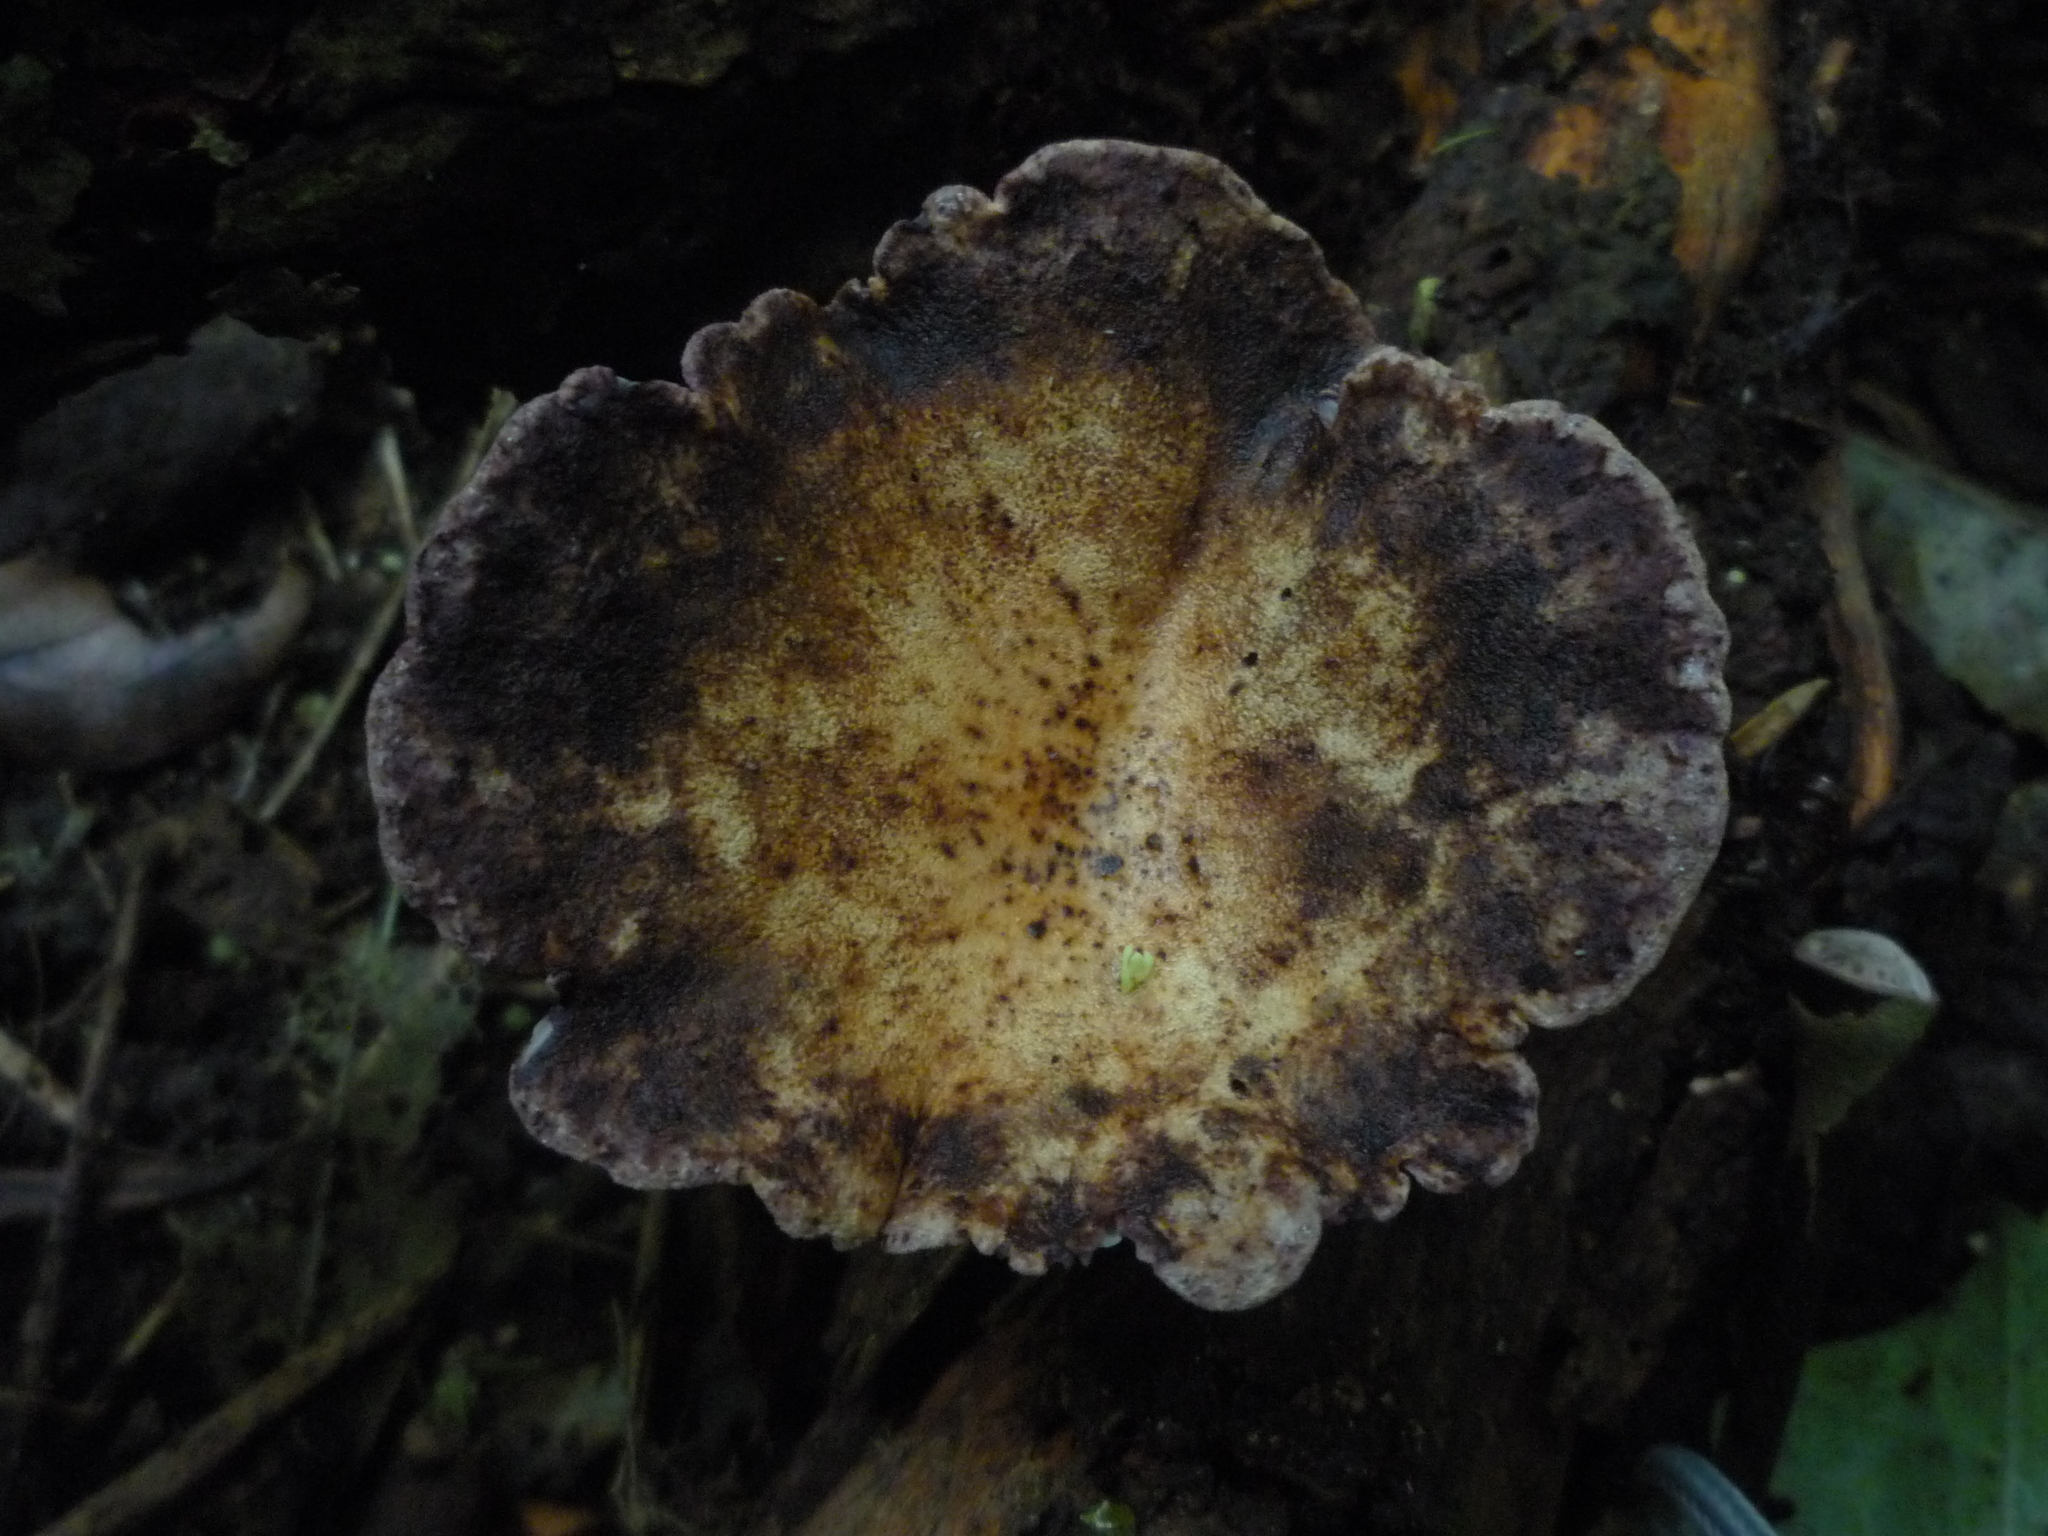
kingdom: Fungi
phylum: Basidiomycota
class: Agaricomycetes
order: Polyporales
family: Panaceae
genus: Panus
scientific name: Panus purpuratus
